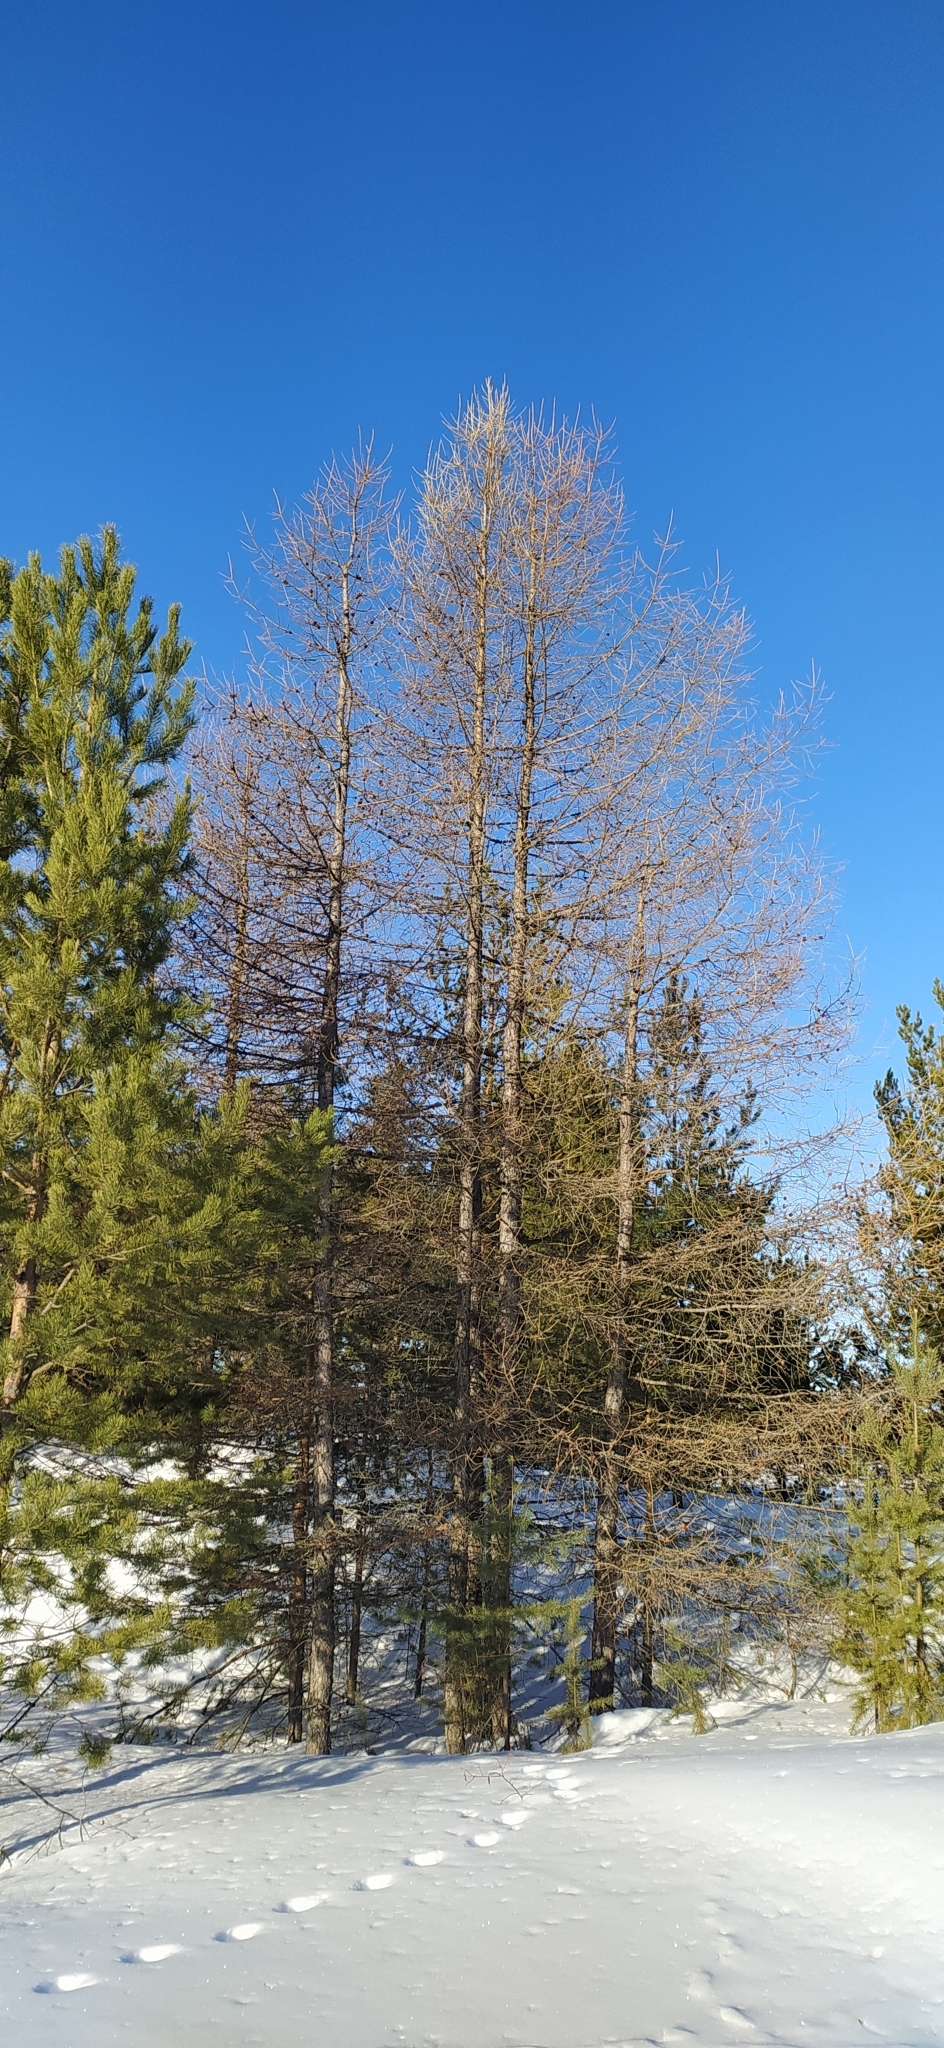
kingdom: Plantae
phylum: Tracheophyta
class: Pinopsida
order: Pinales
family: Pinaceae
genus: Larix
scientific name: Larix sibirica
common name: Siberian larch
